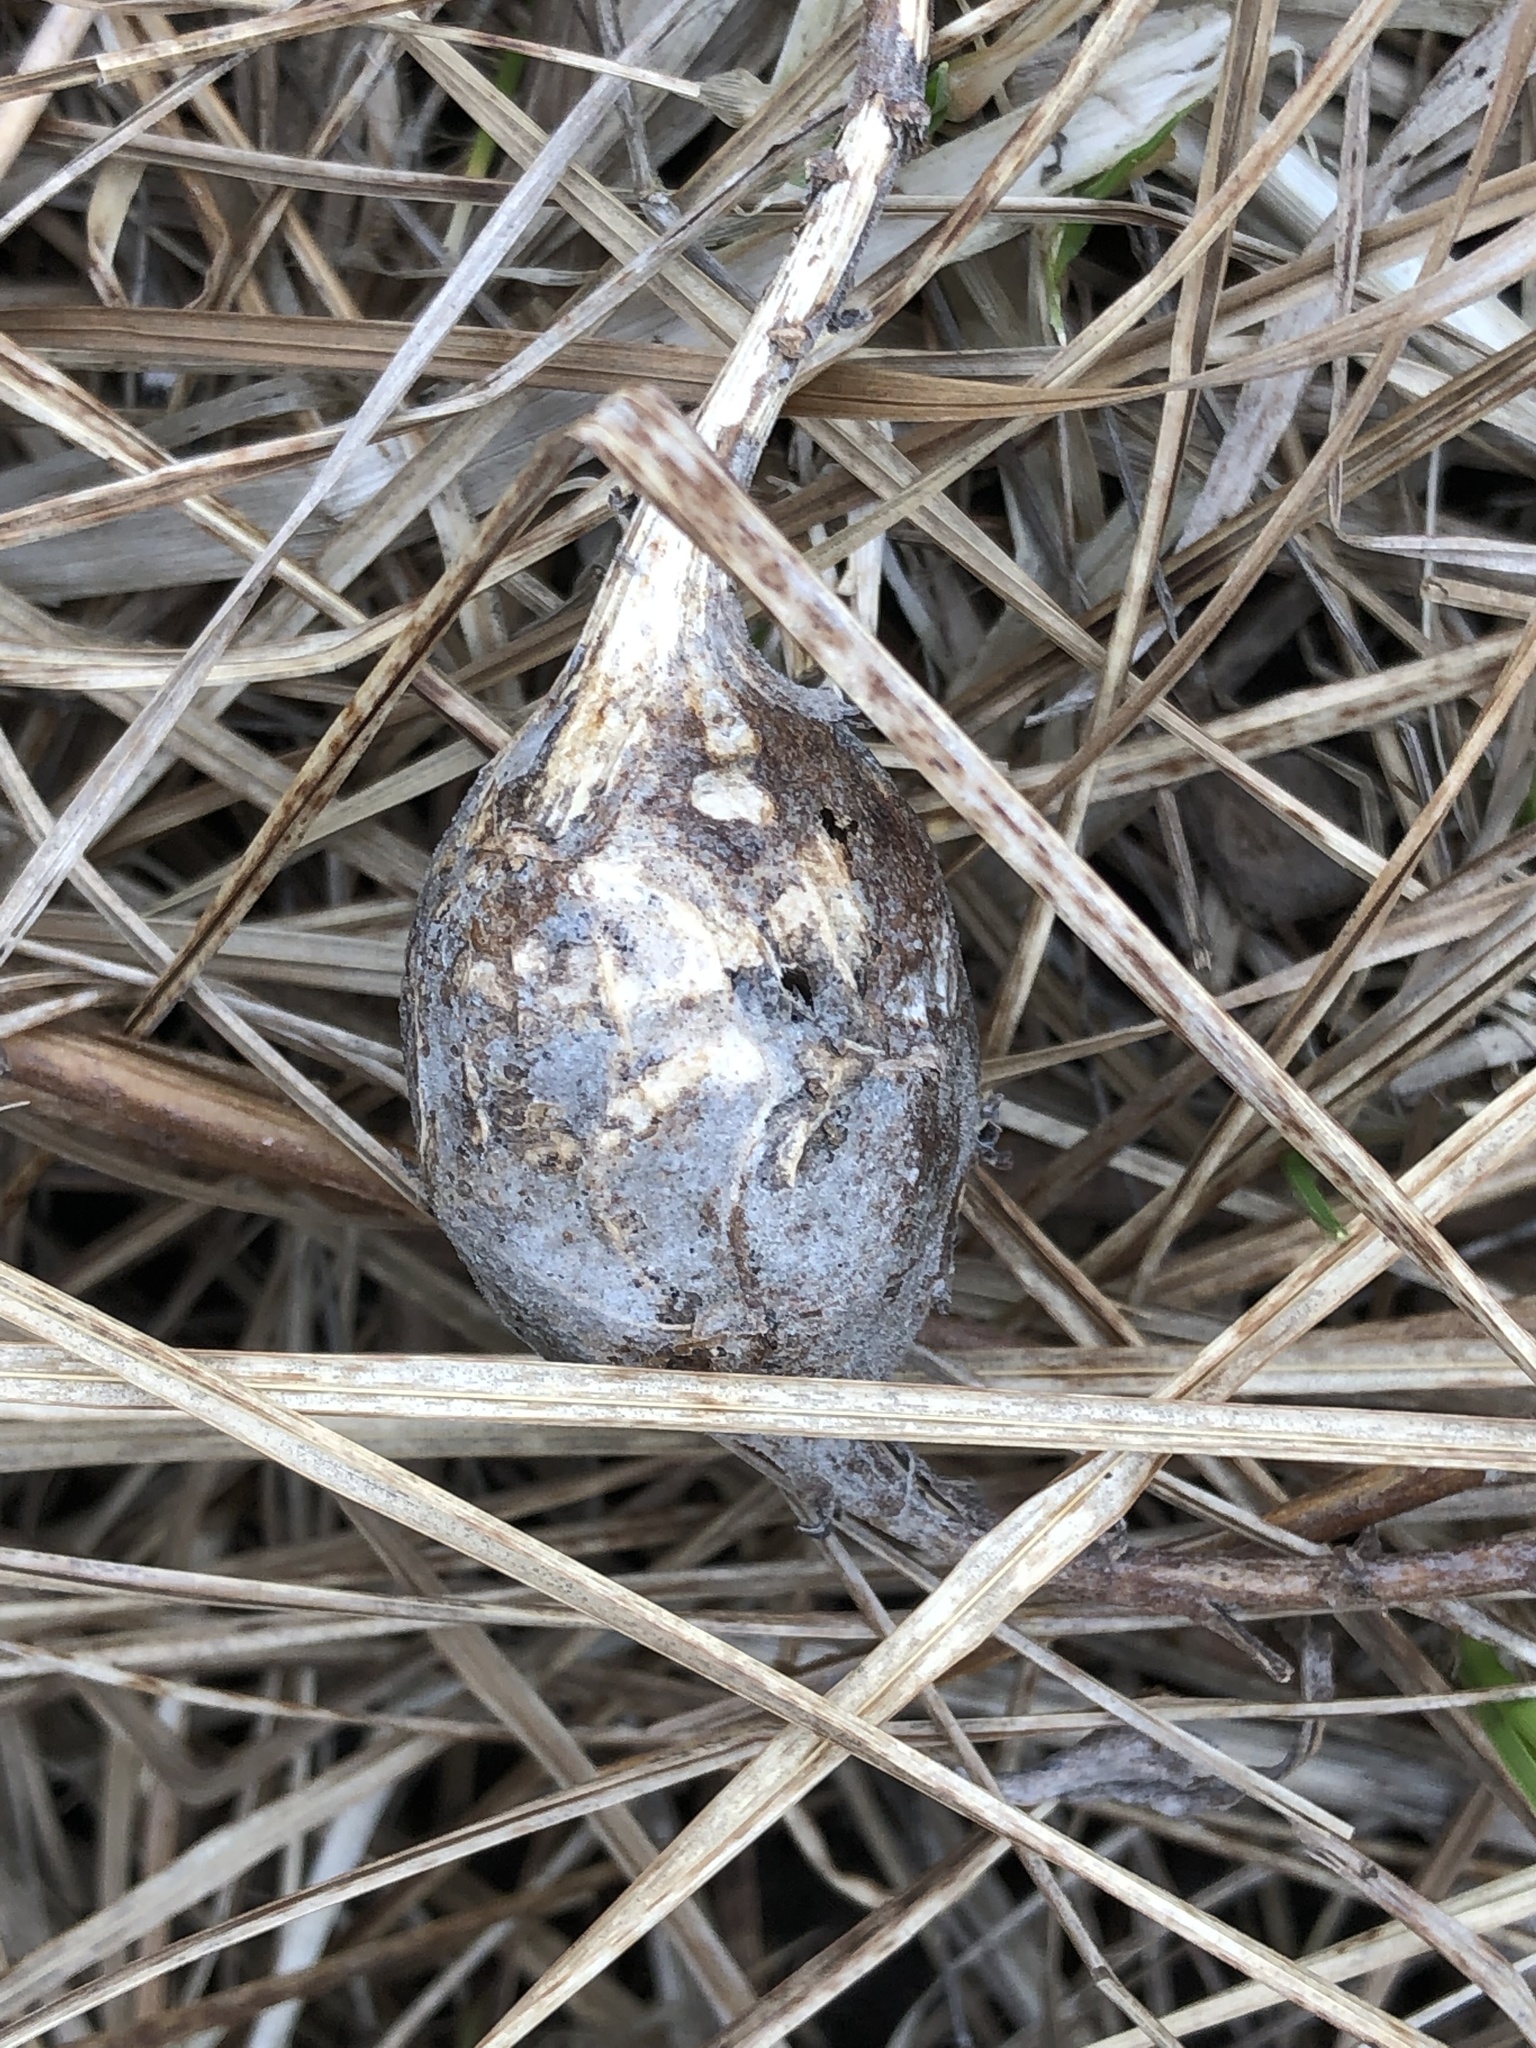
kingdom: Animalia
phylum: Arthropoda
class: Insecta
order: Diptera
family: Tephritidae
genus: Eurosta
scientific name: Eurosta solidaginis
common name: Goldenrod gall fly
